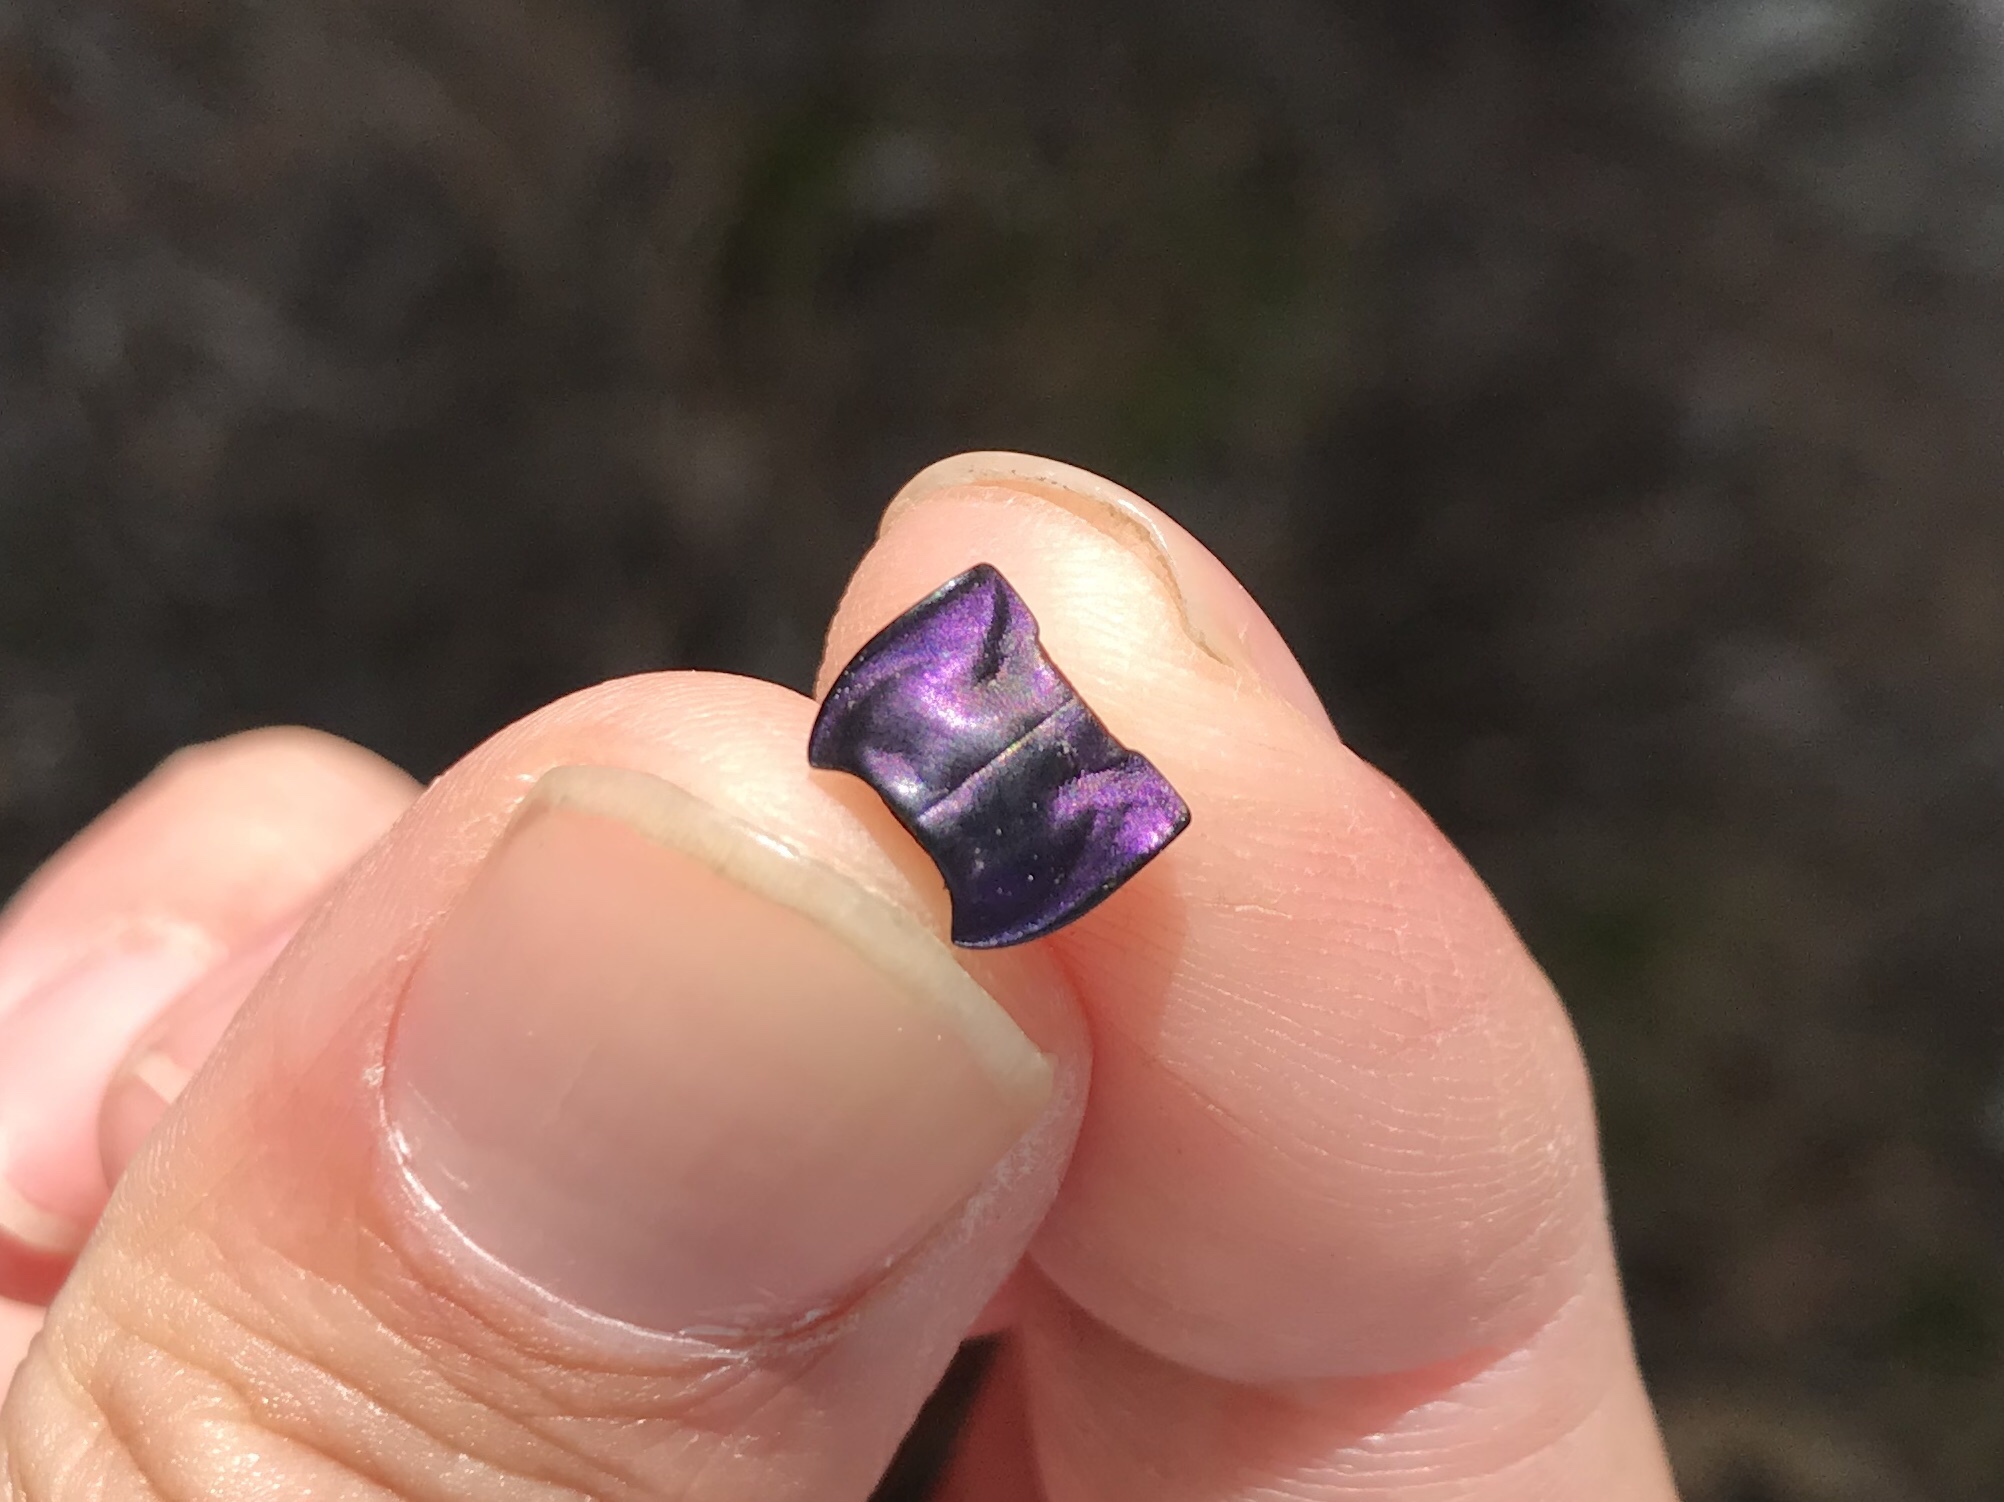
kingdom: Animalia
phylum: Arthropoda
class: Insecta
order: Coleoptera
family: Carabidae
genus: Dicaelus
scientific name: Dicaelus purpuratus
